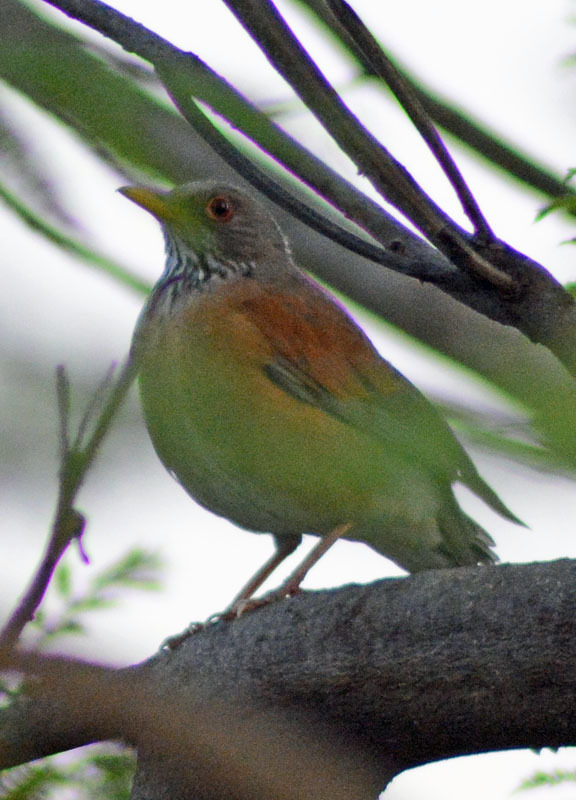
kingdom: Animalia
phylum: Chordata
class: Aves
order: Passeriformes
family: Turdidae
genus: Turdus
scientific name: Turdus rufopalliatus
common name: Rufous-backed robin
